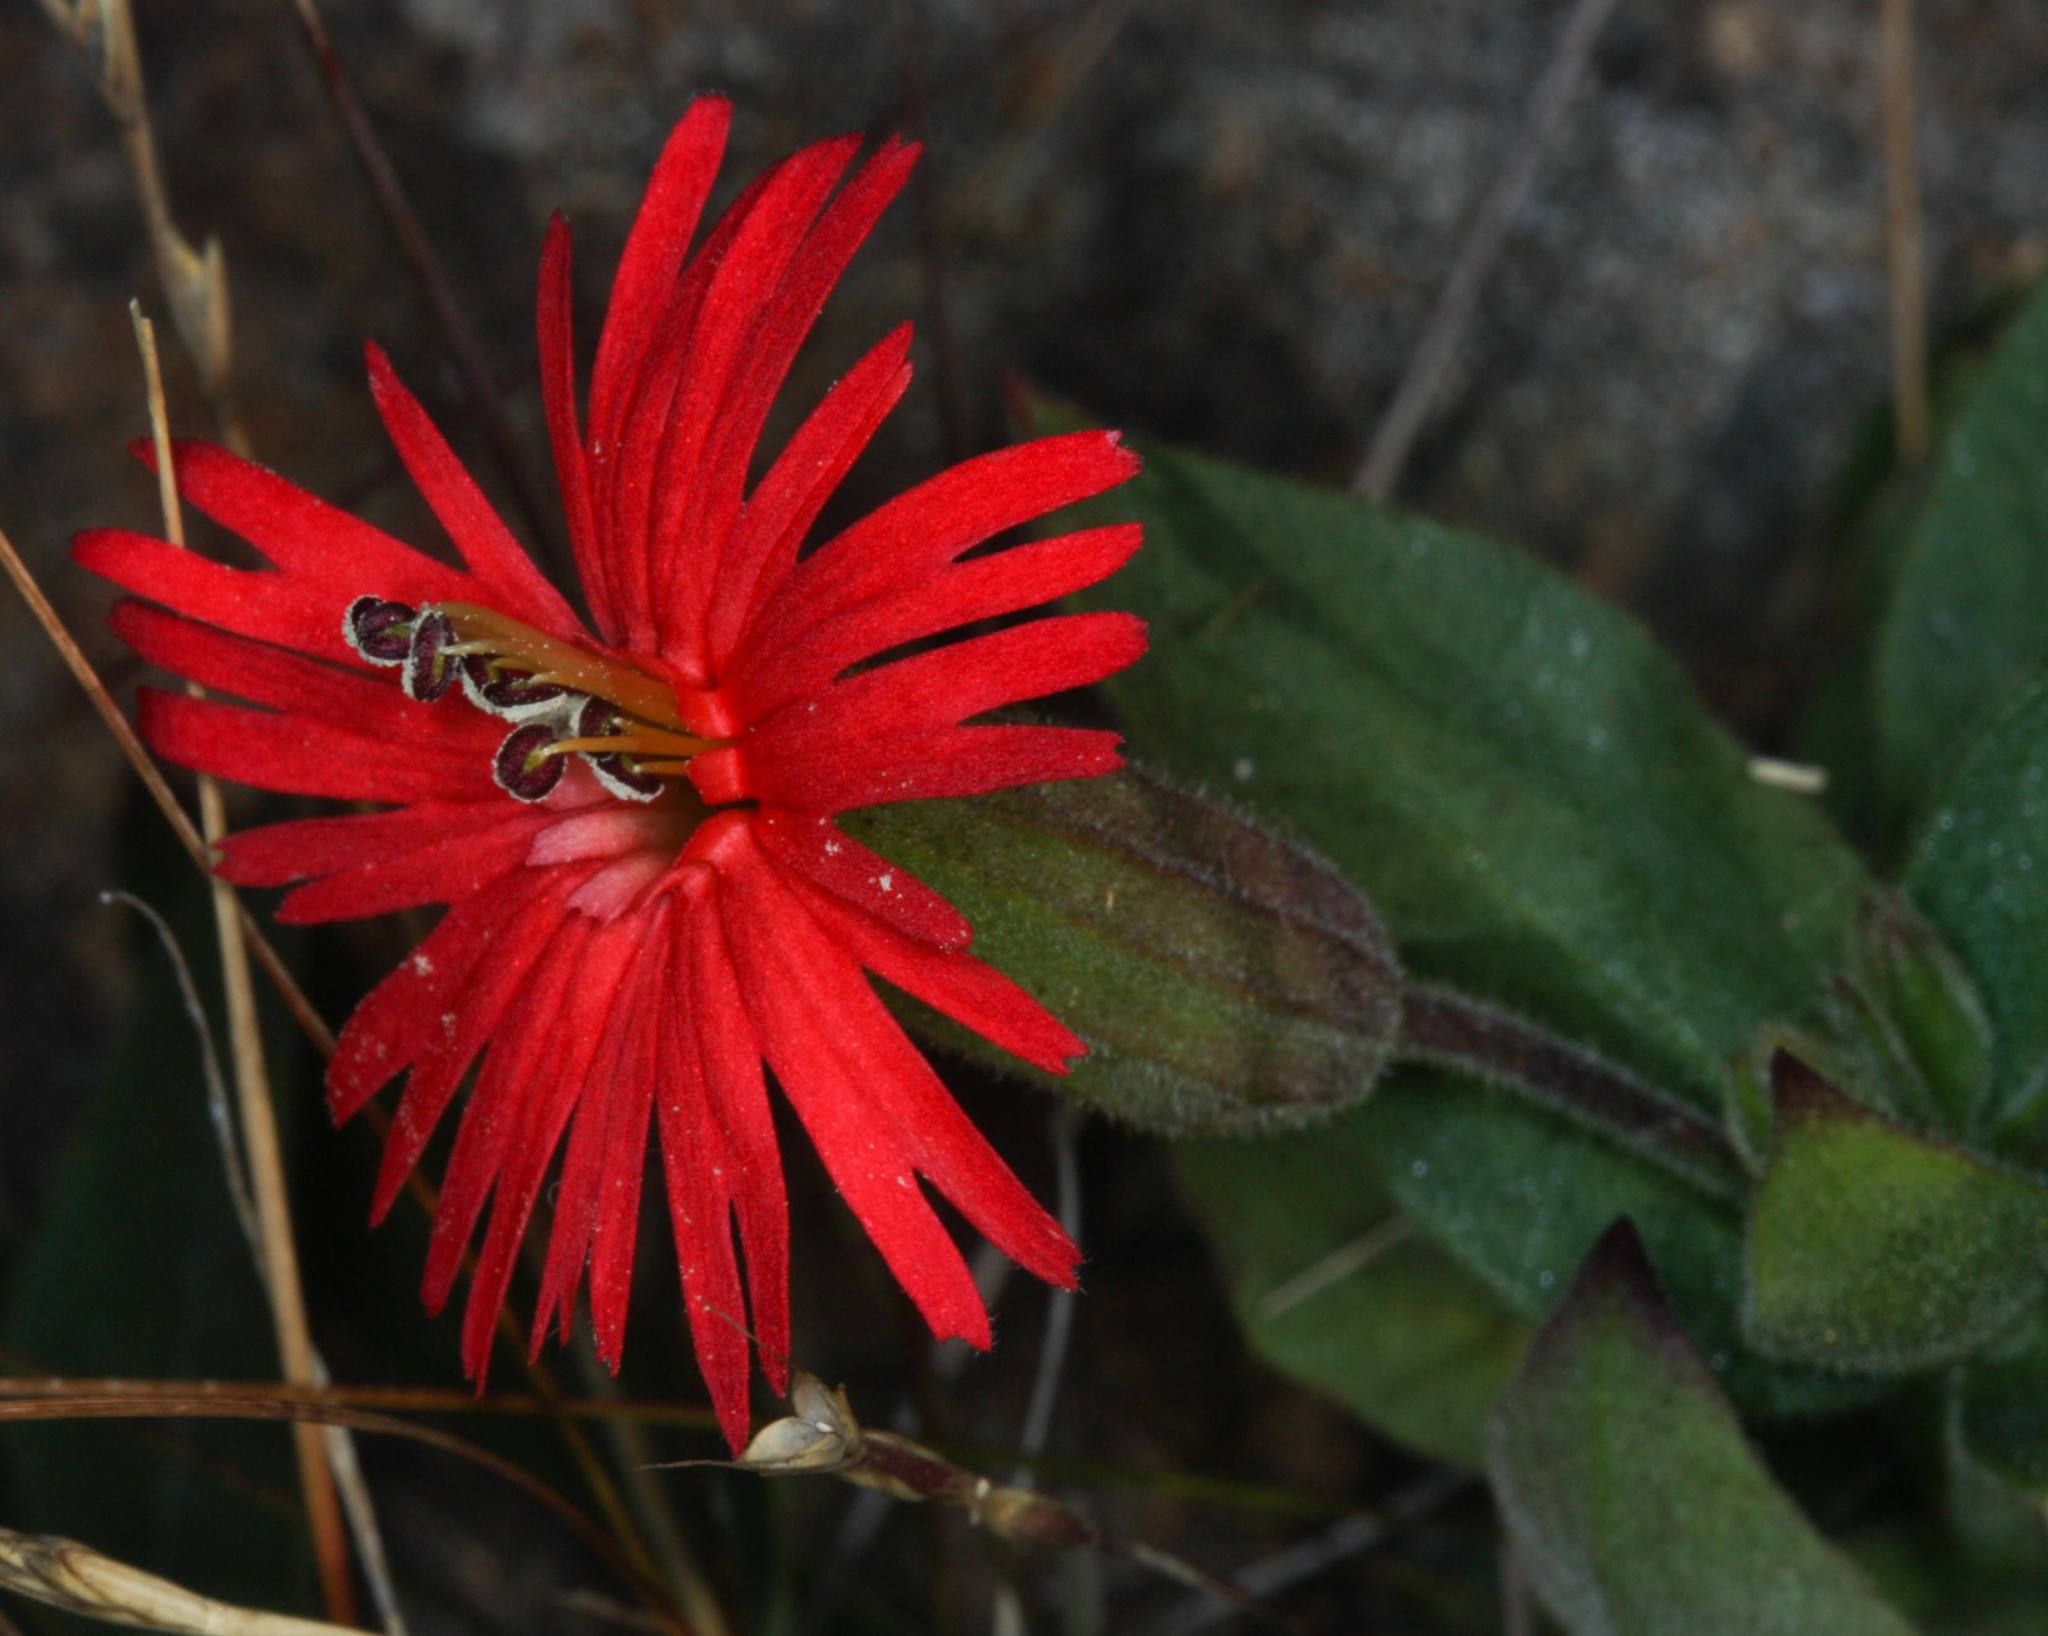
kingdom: Plantae
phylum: Tracheophyta
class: Magnoliopsida
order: Caryophyllales
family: Caryophyllaceae
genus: Silene
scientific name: Silene laciniata
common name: Indian-pink
